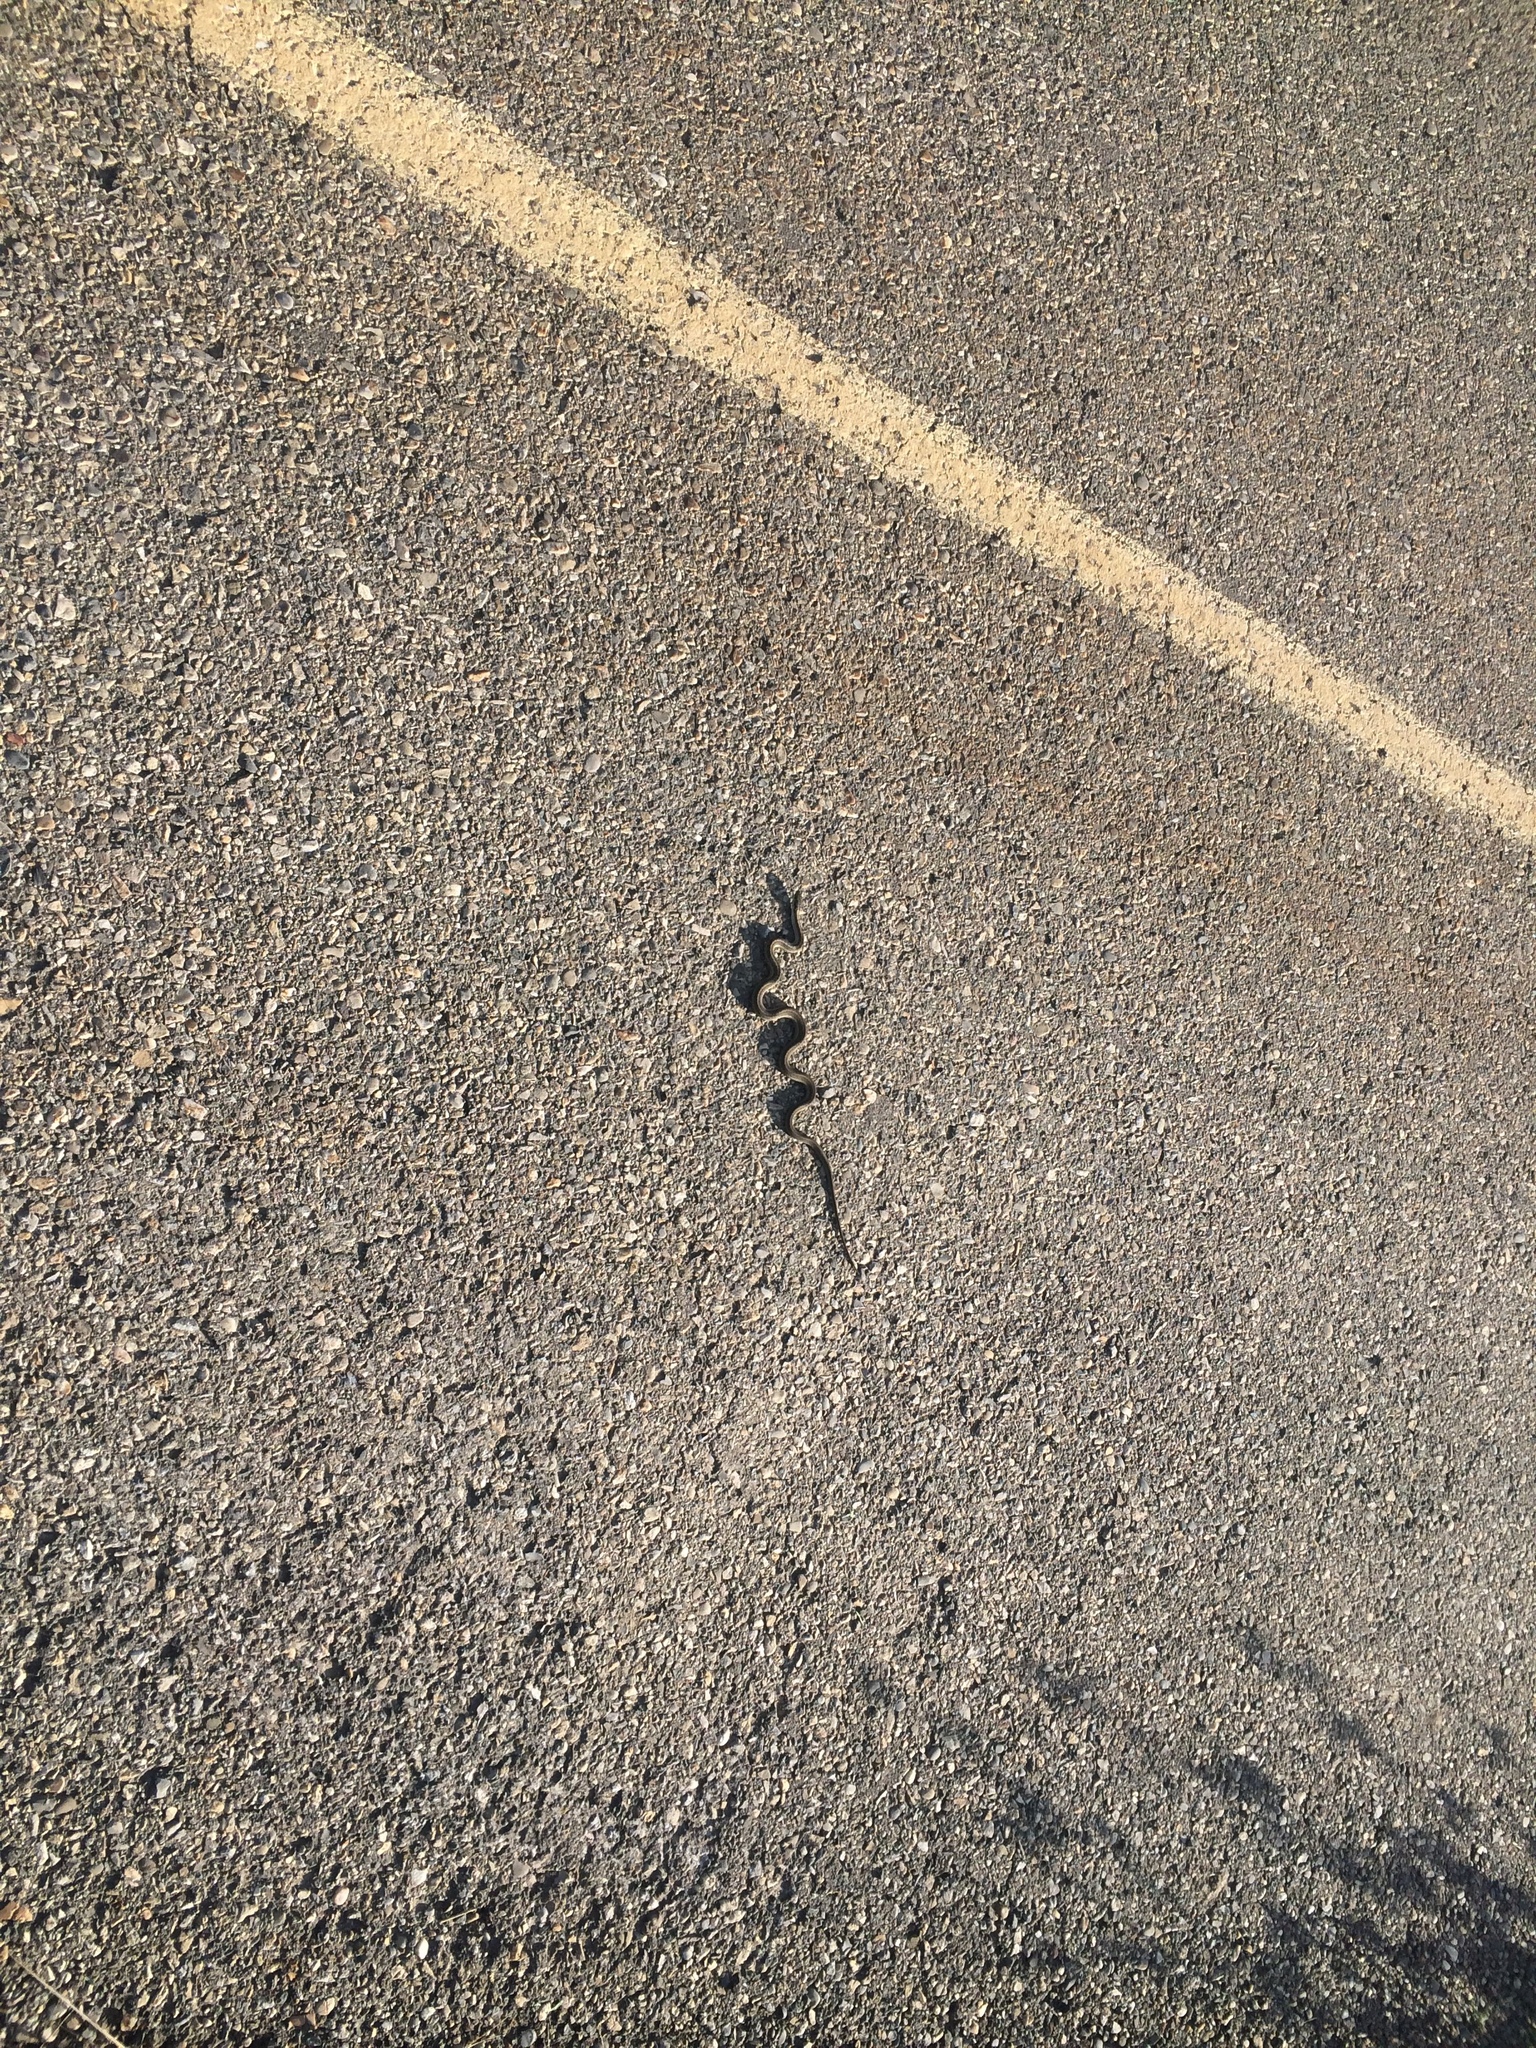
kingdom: Animalia
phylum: Chordata
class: Squamata
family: Colubridae
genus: Thamnophis
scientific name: Thamnophis elegans
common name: Western terrestrial garter snake
